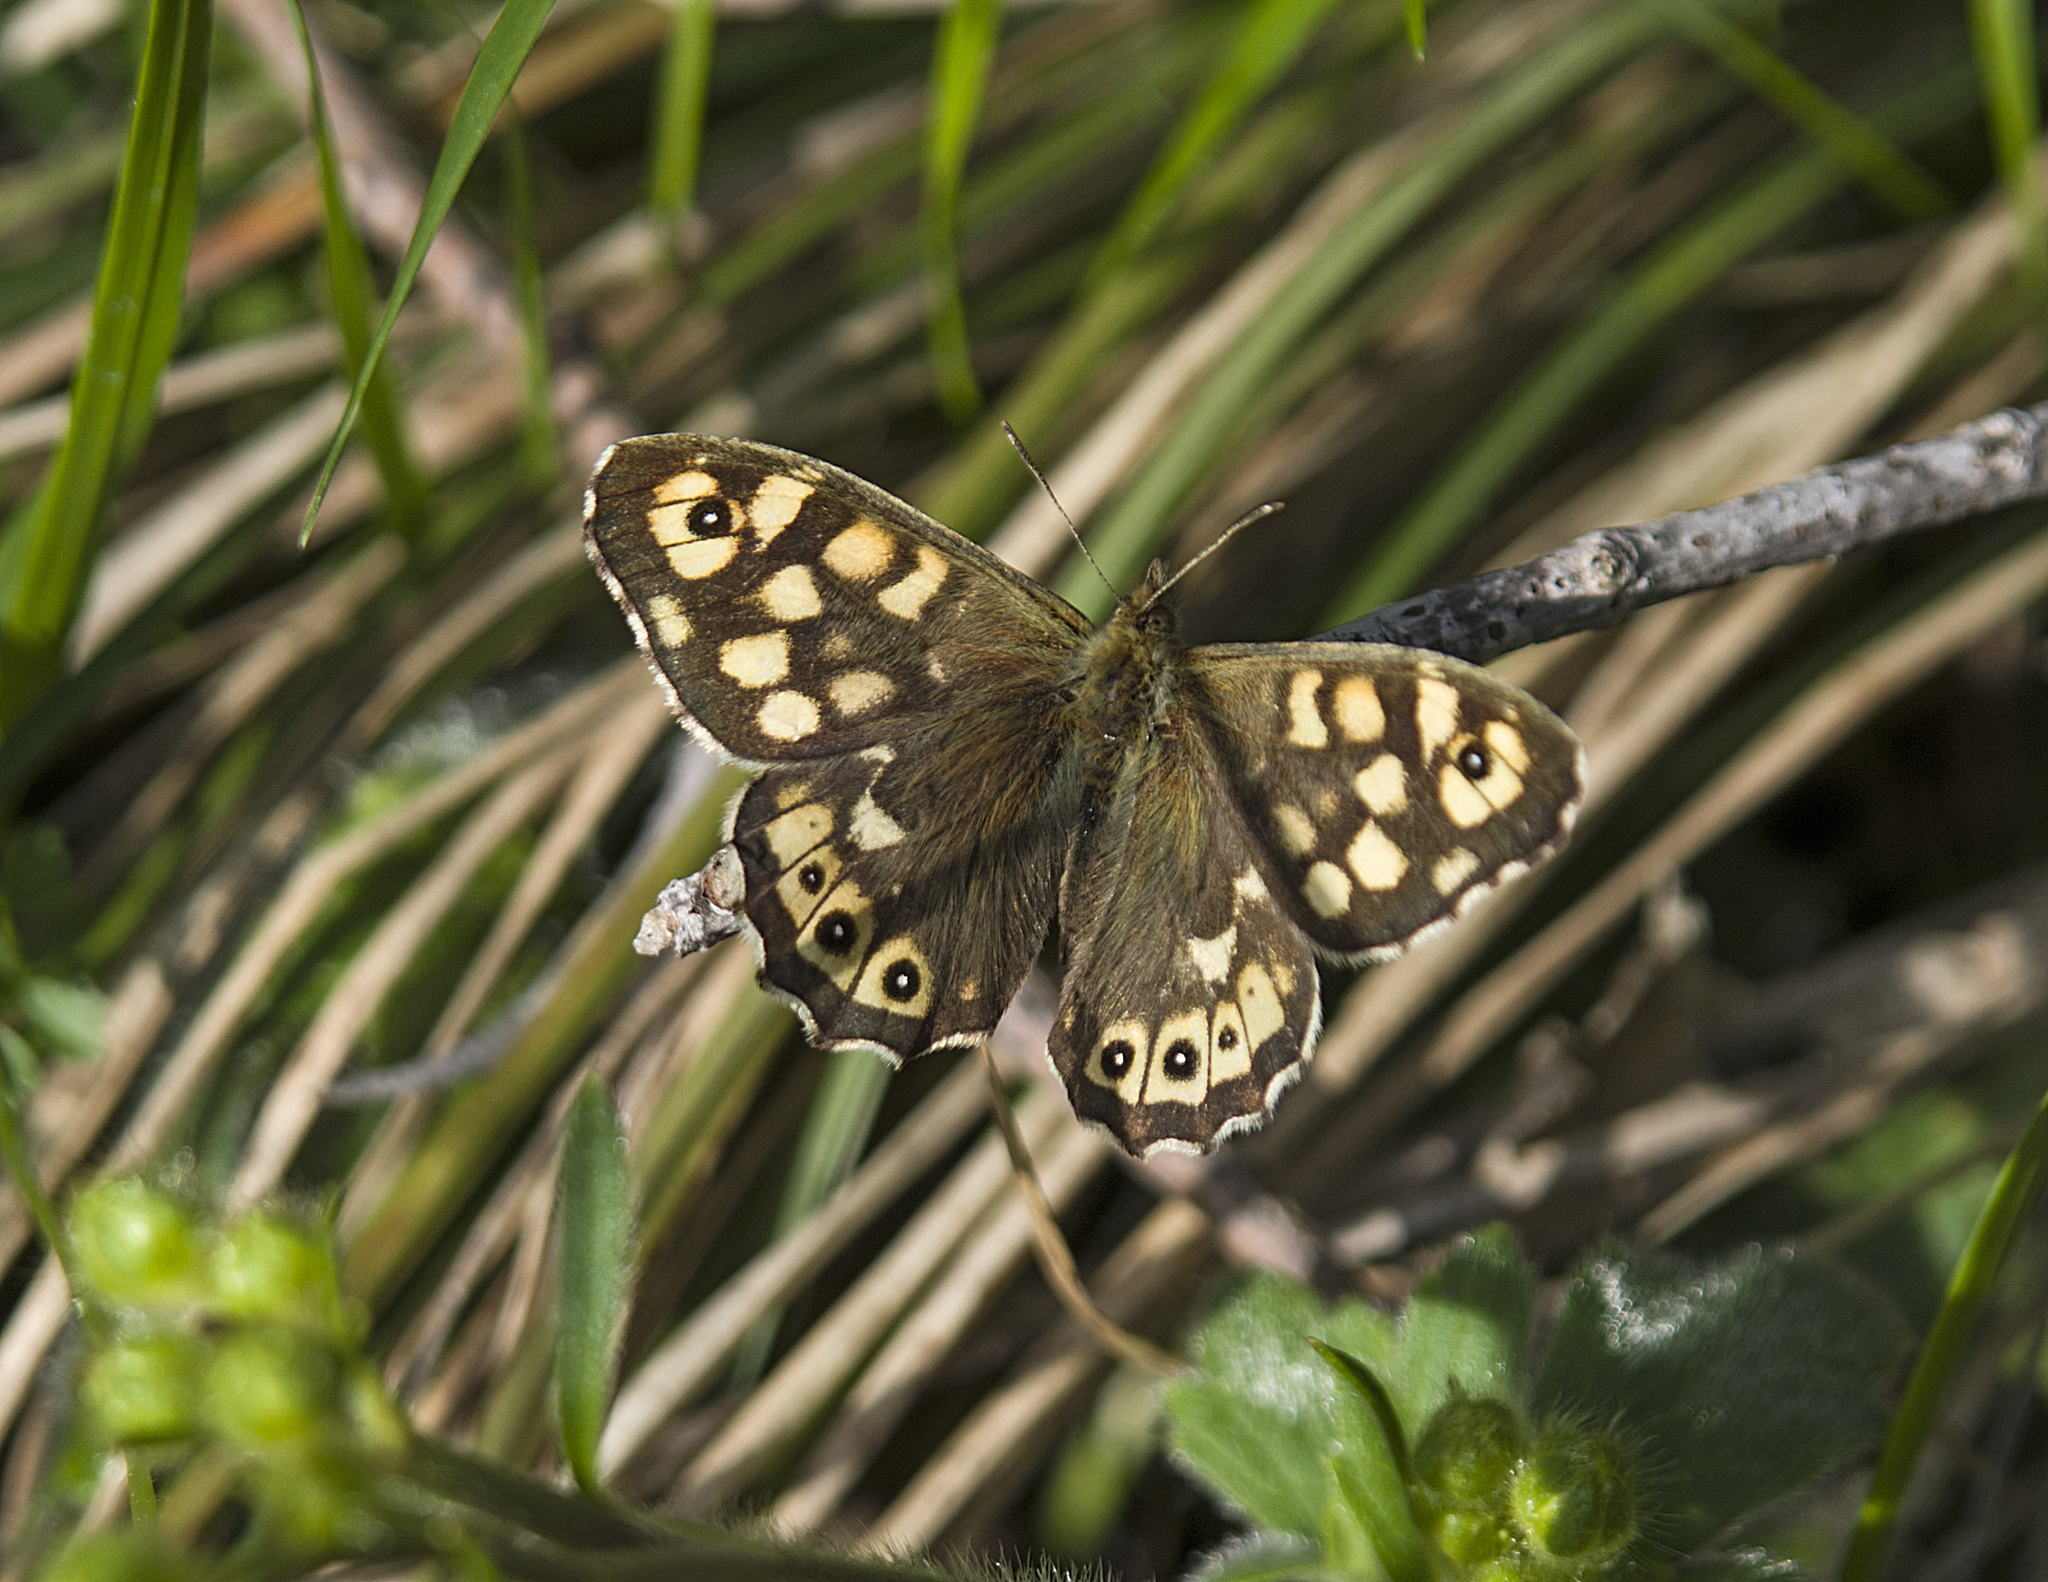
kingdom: Animalia
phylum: Arthropoda
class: Insecta
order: Lepidoptera
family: Nymphalidae
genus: Pararge
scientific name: Pararge aegeria
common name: Speckled wood
